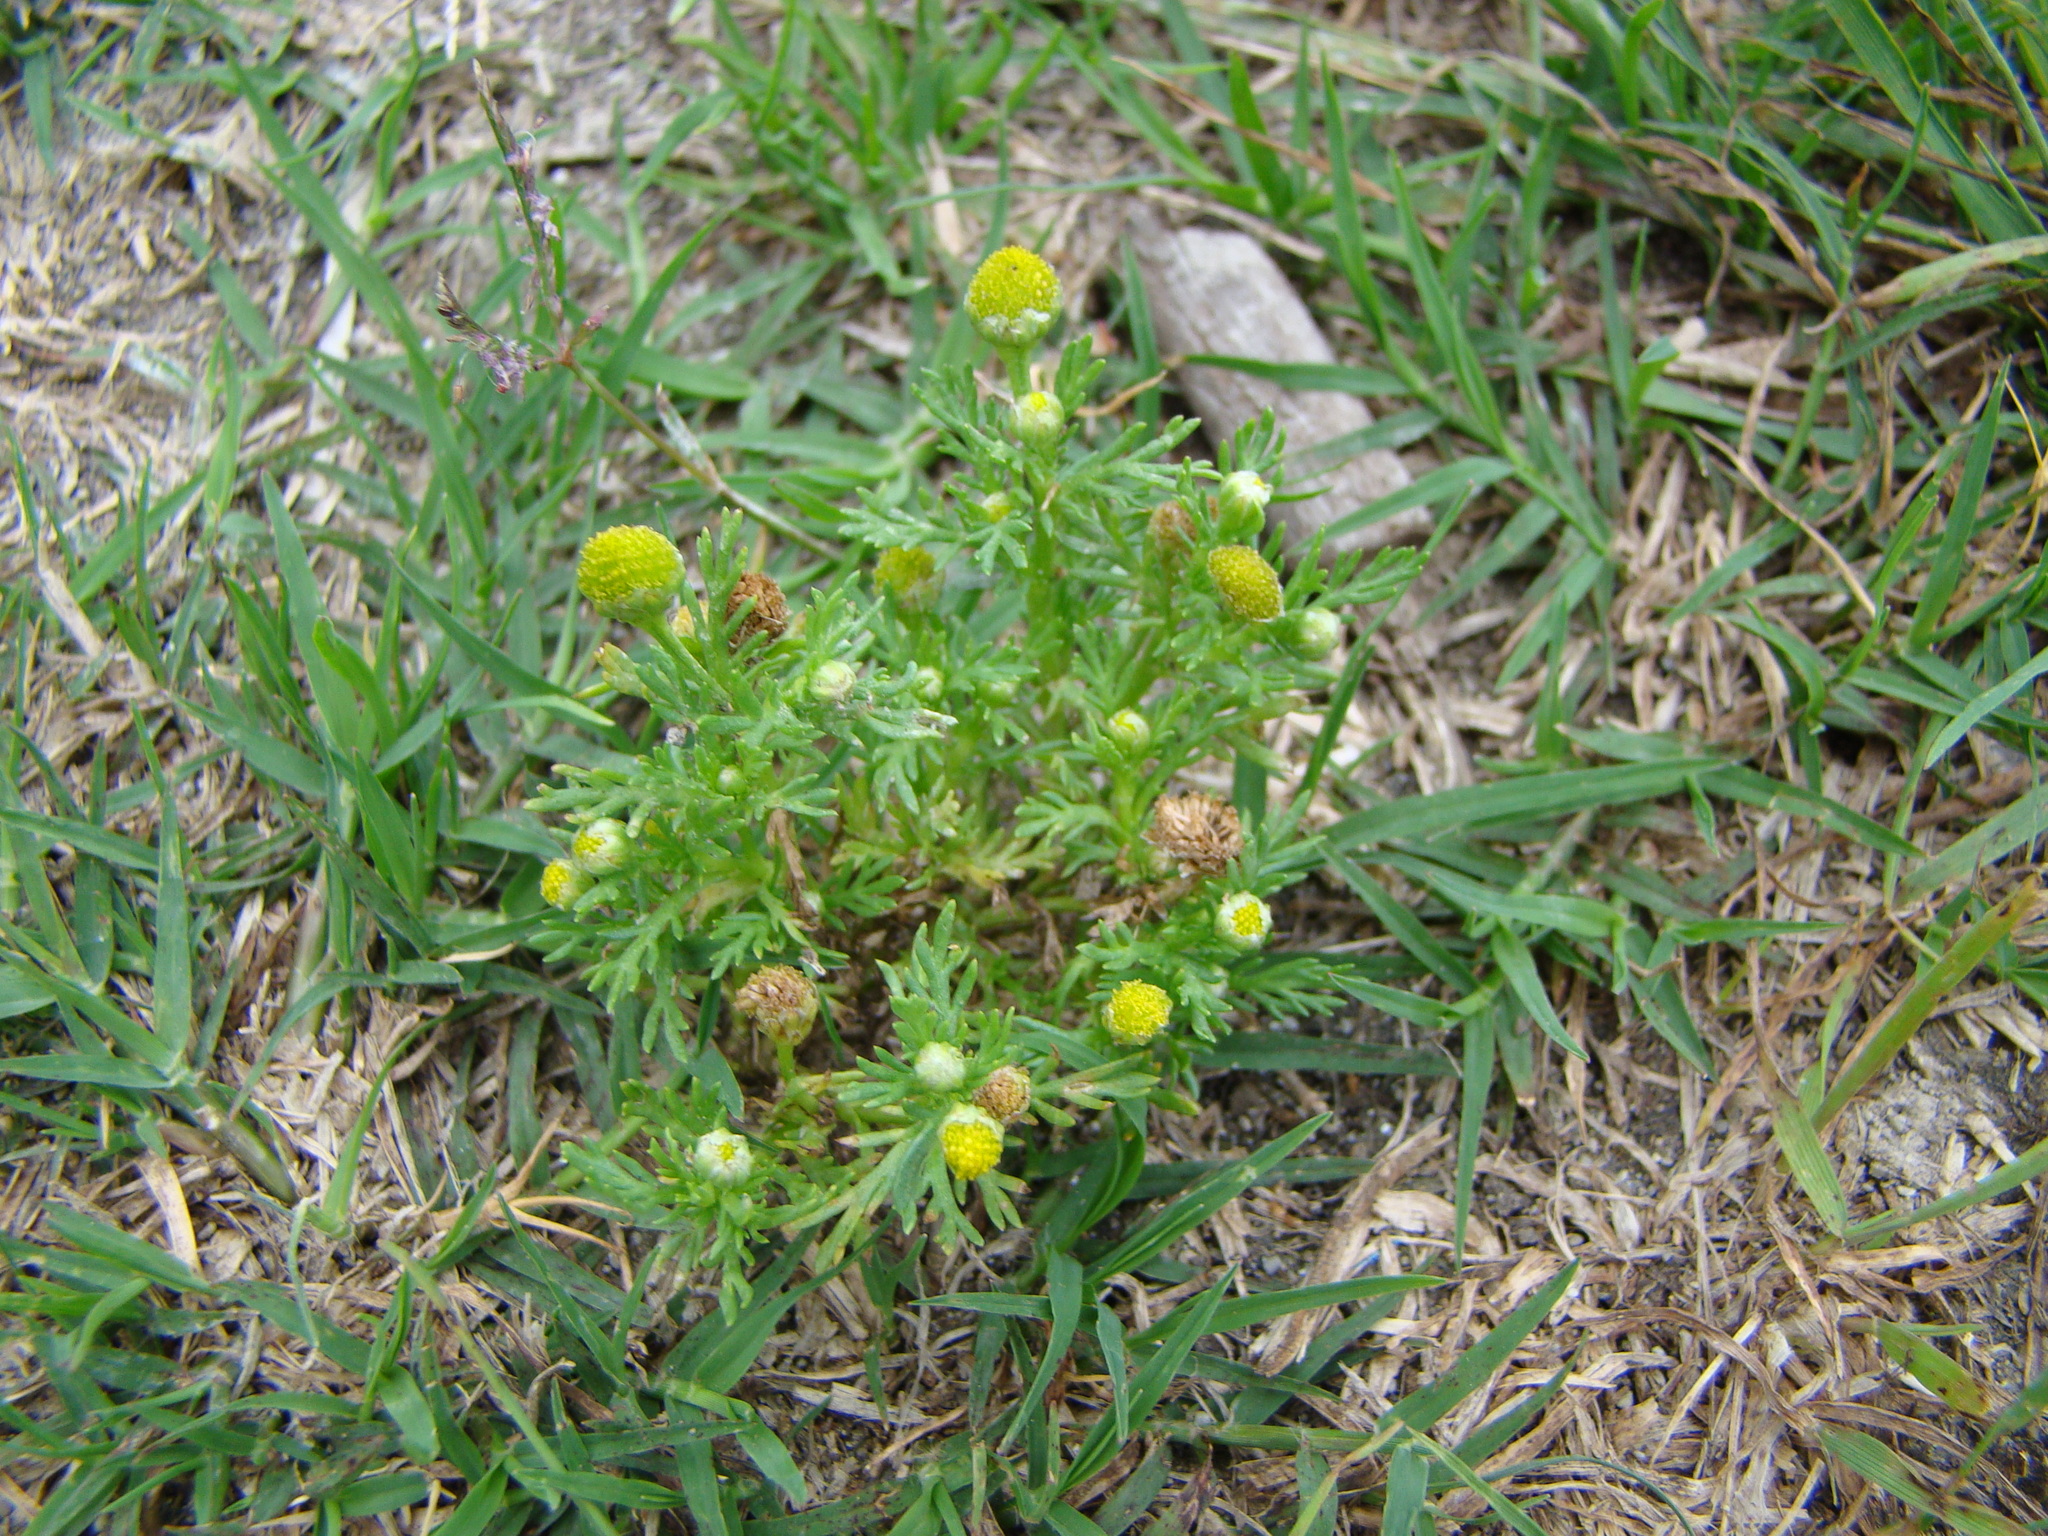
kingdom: Plantae
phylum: Tracheophyta
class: Magnoliopsida
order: Asterales
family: Asteraceae
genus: Matricaria
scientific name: Matricaria discoidea
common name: Disc mayweed
